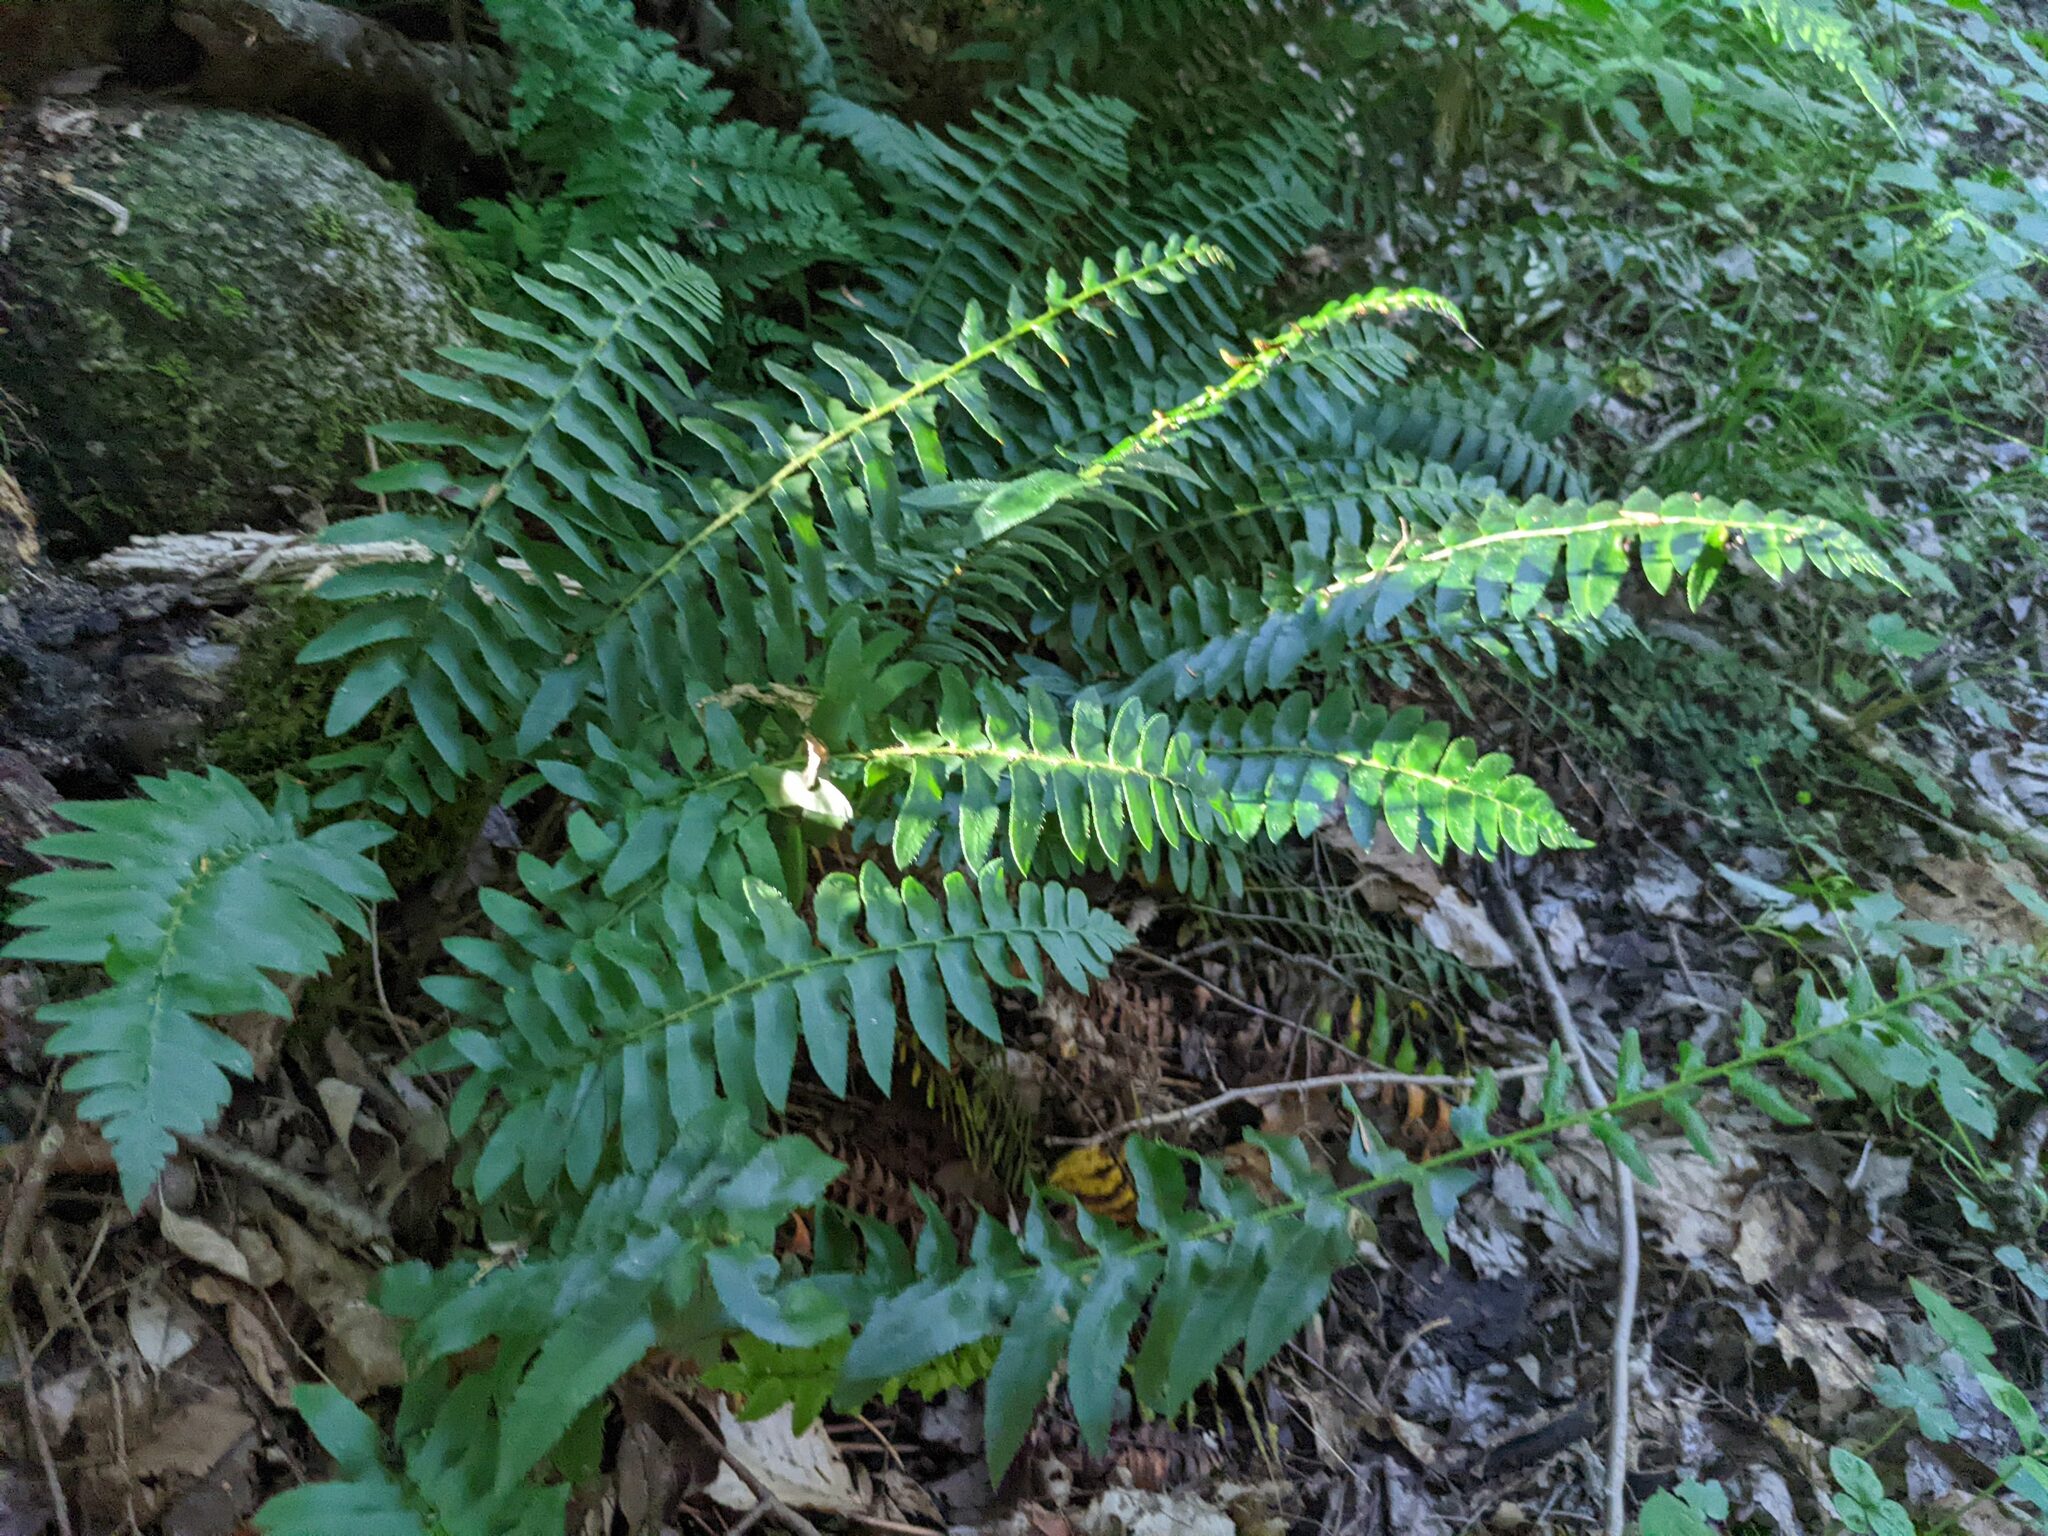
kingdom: Plantae
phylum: Tracheophyta
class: Polypodiopsida
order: Polypodiales
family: Dryopteridaceae
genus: Polystichum
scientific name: Polystichum acrostichoides
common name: Christmas fern
